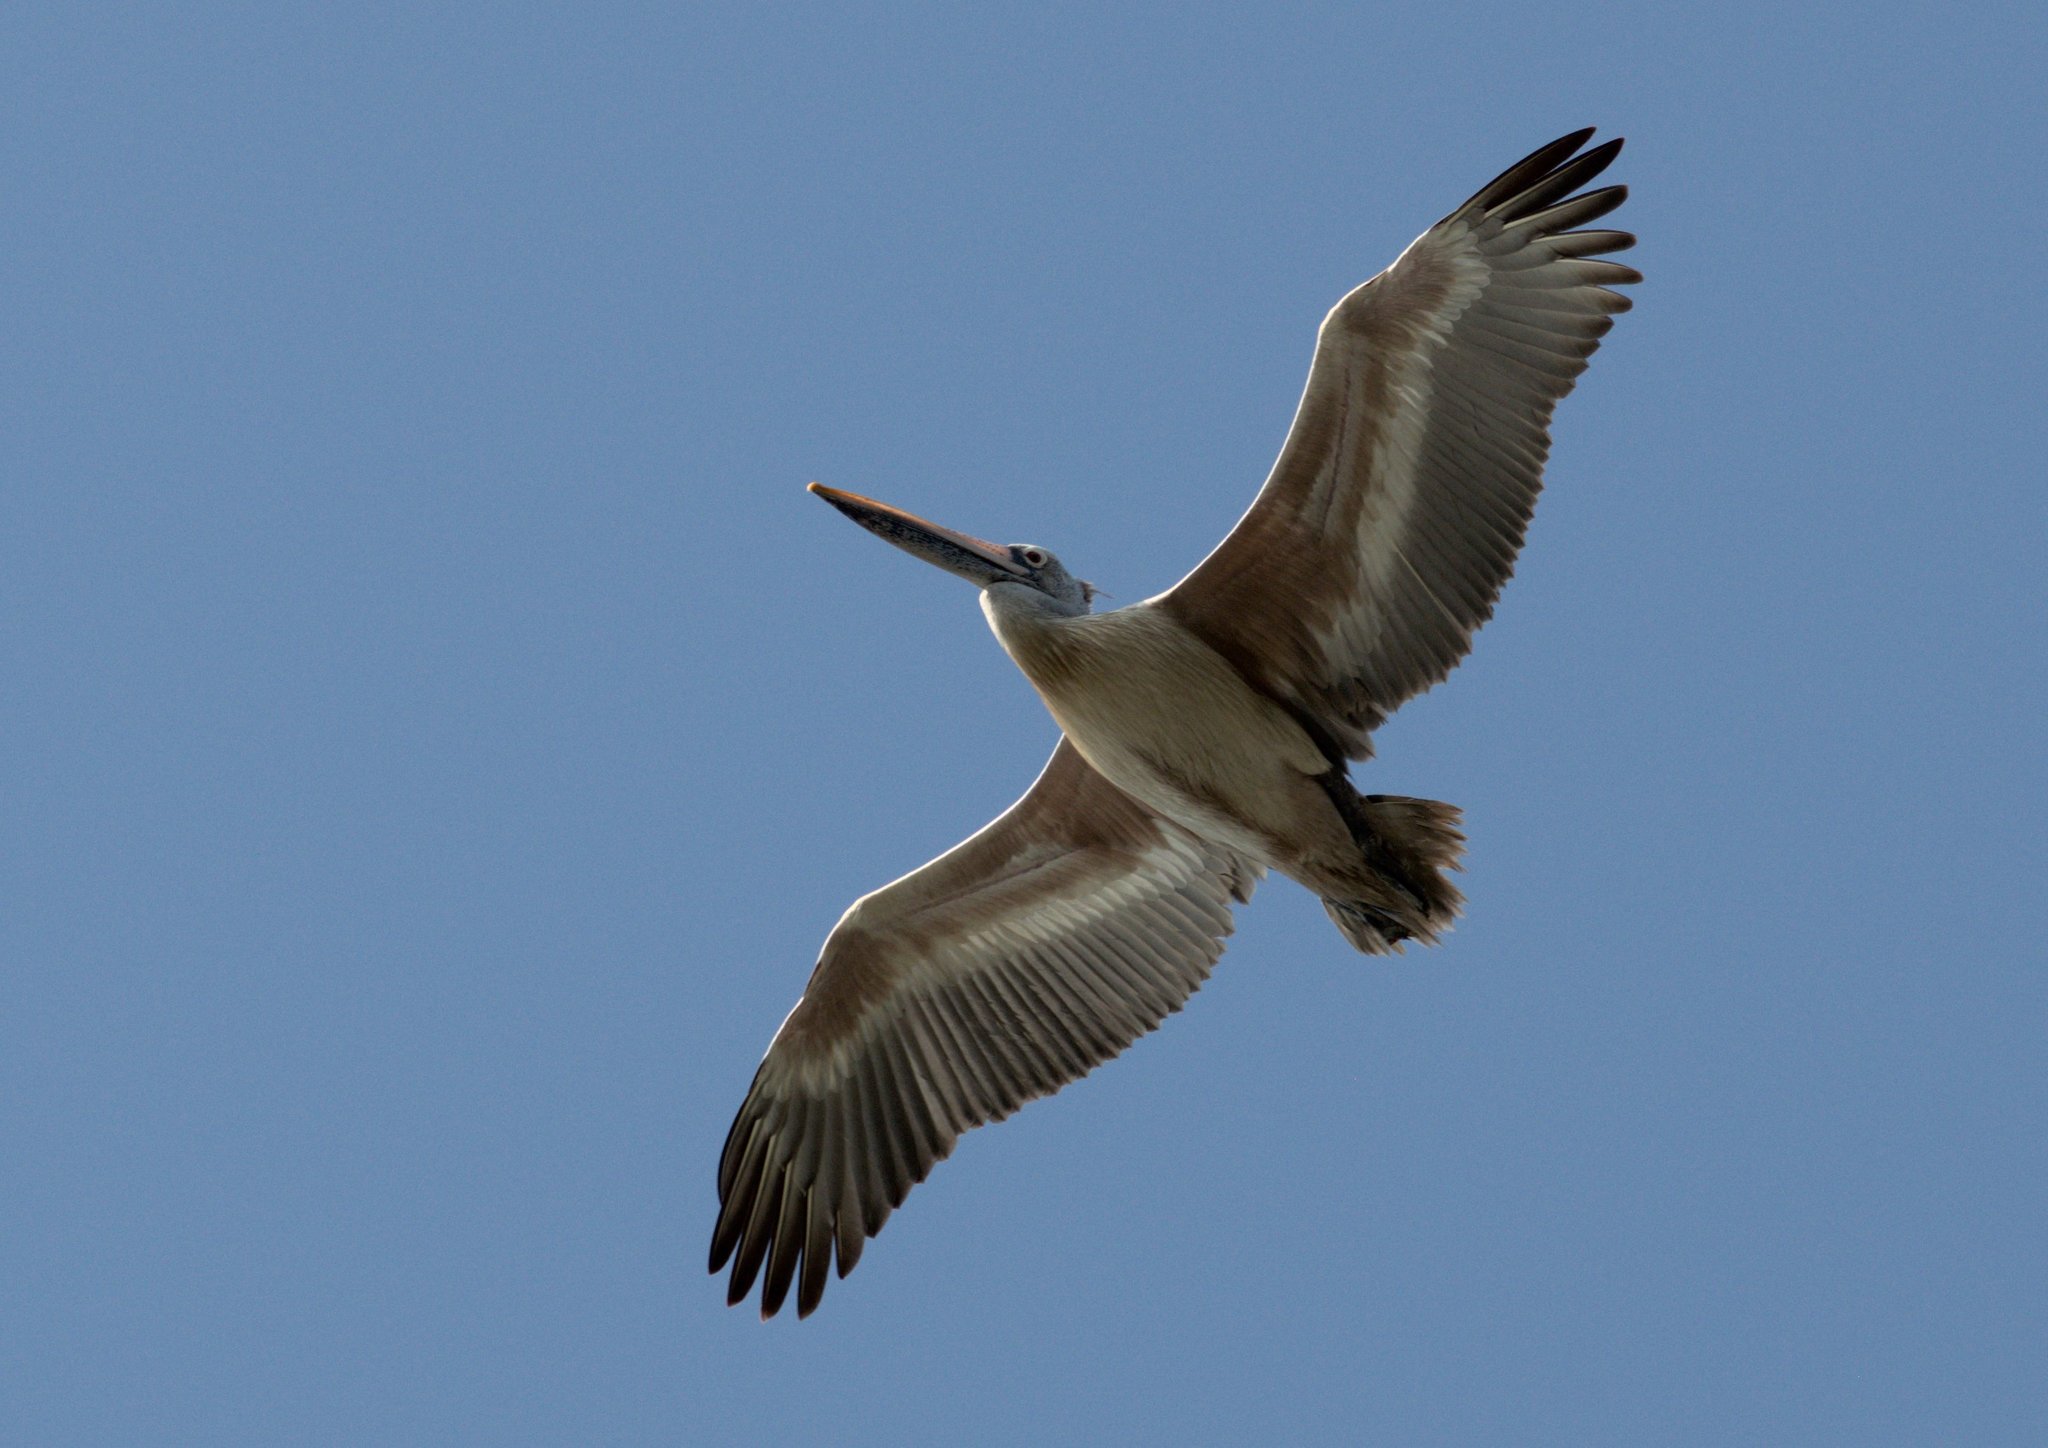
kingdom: Animalia
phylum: Chordata
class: Aves
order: Pelecaniformes
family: Pelecanidae
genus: Pelecanus
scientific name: Pelecanus philippensis
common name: Spot-billed pelican
